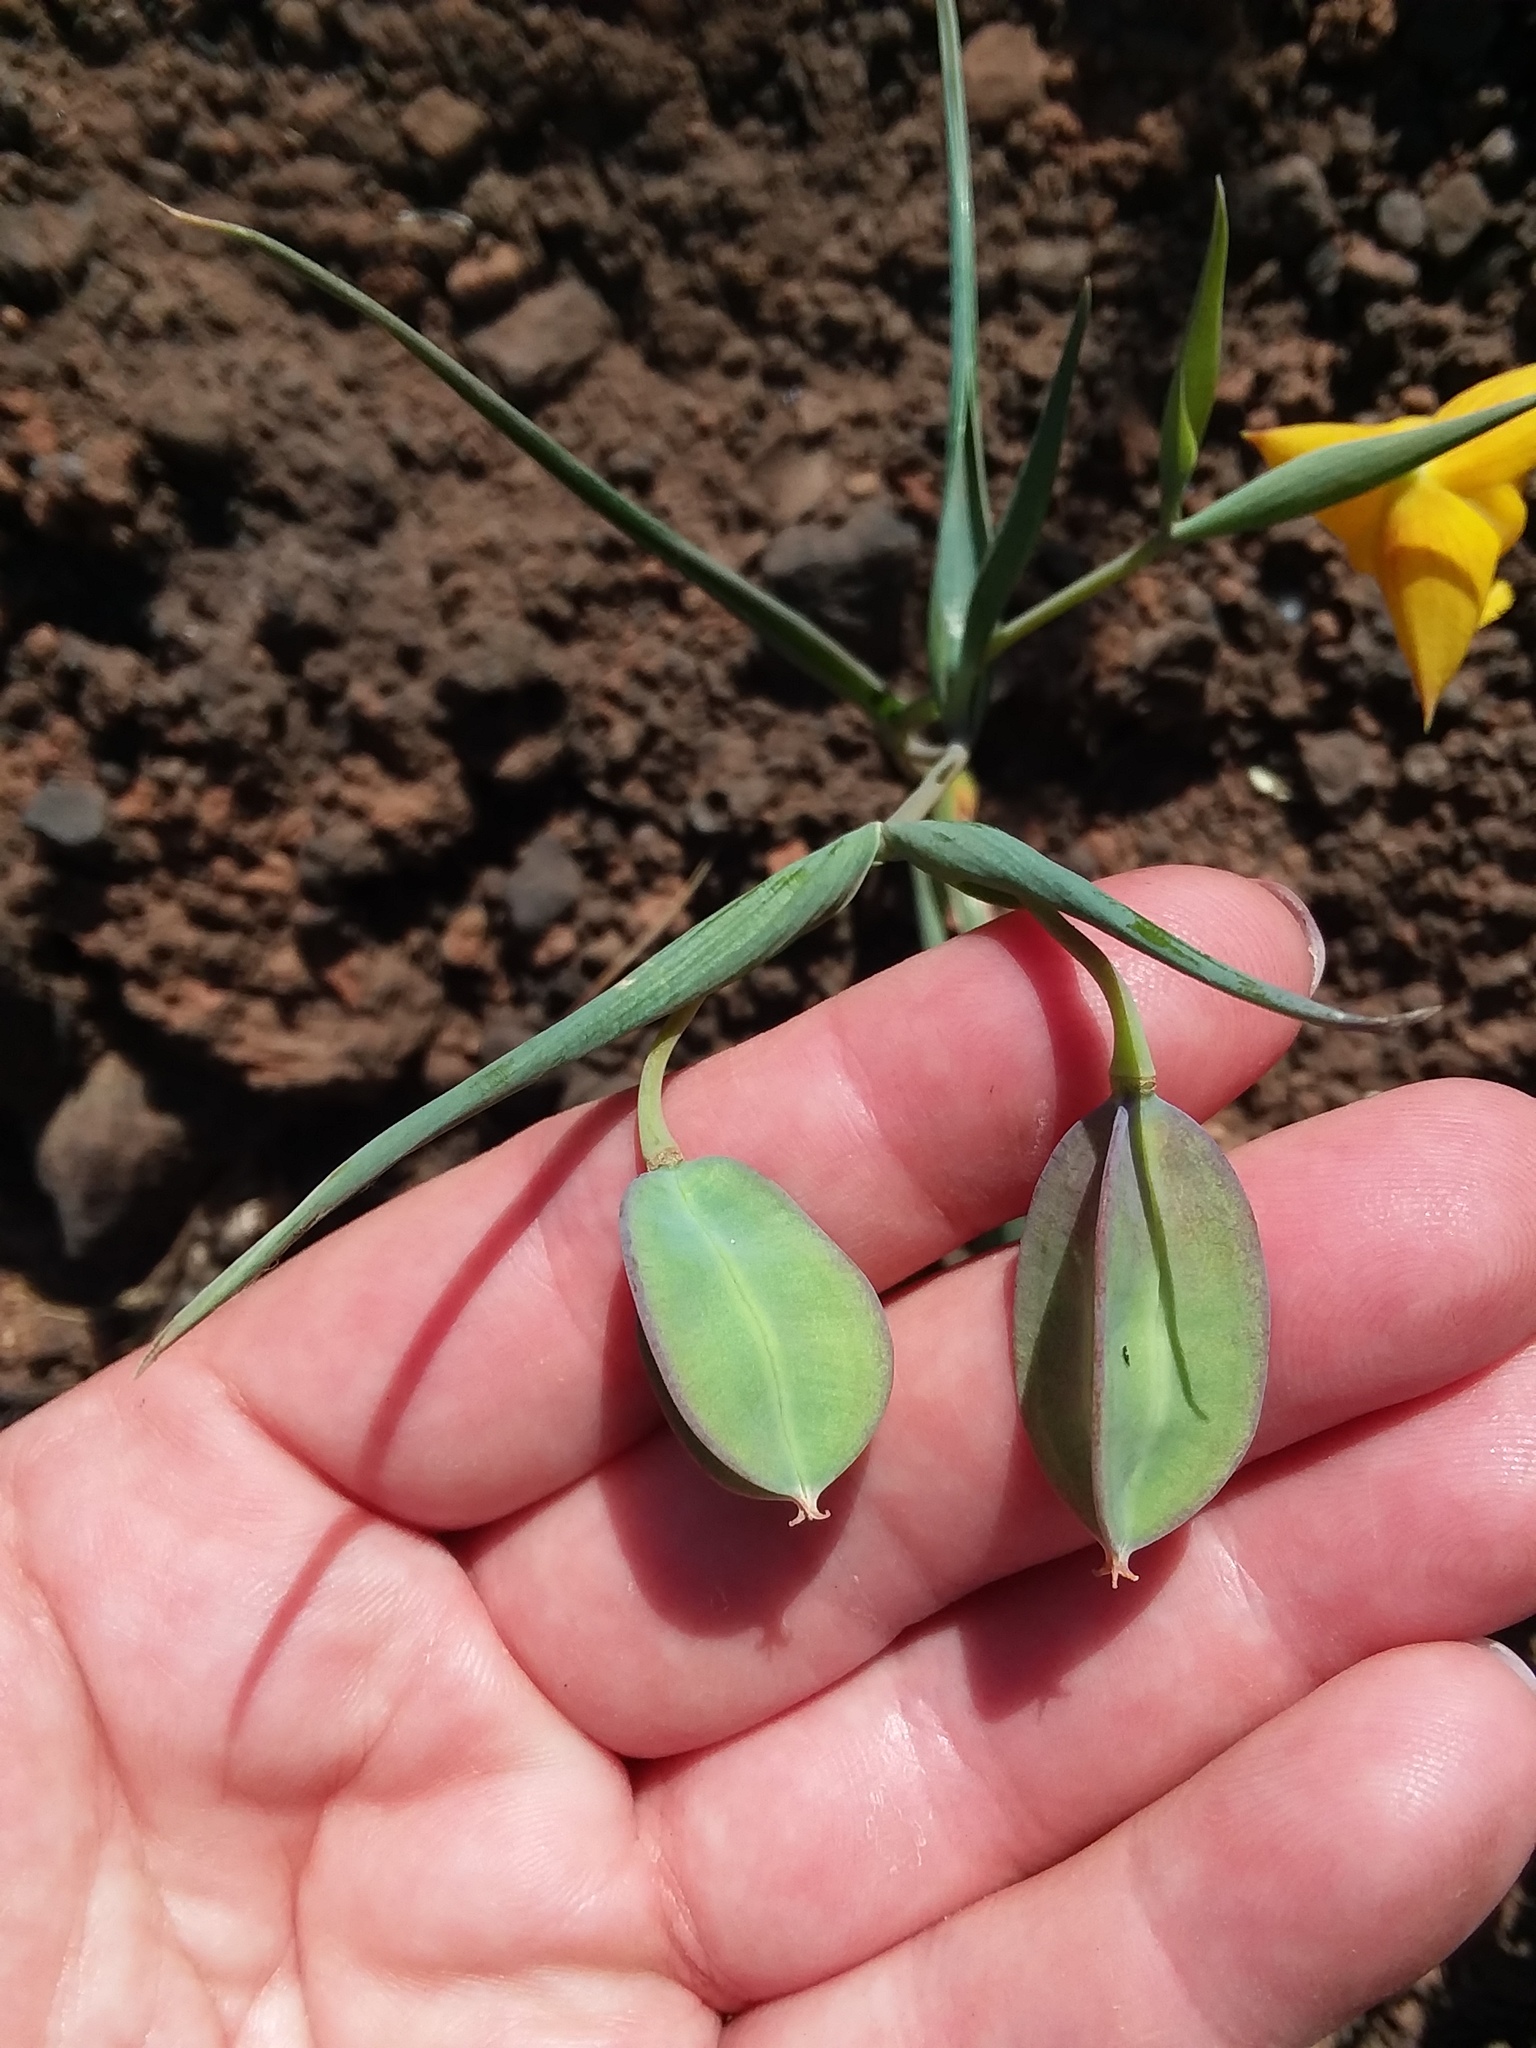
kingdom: Plantae
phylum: Tracheophyta
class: Liliopsida
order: Liliales
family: Liliaceae
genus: Calochortus
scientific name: Calochortus amabilis
